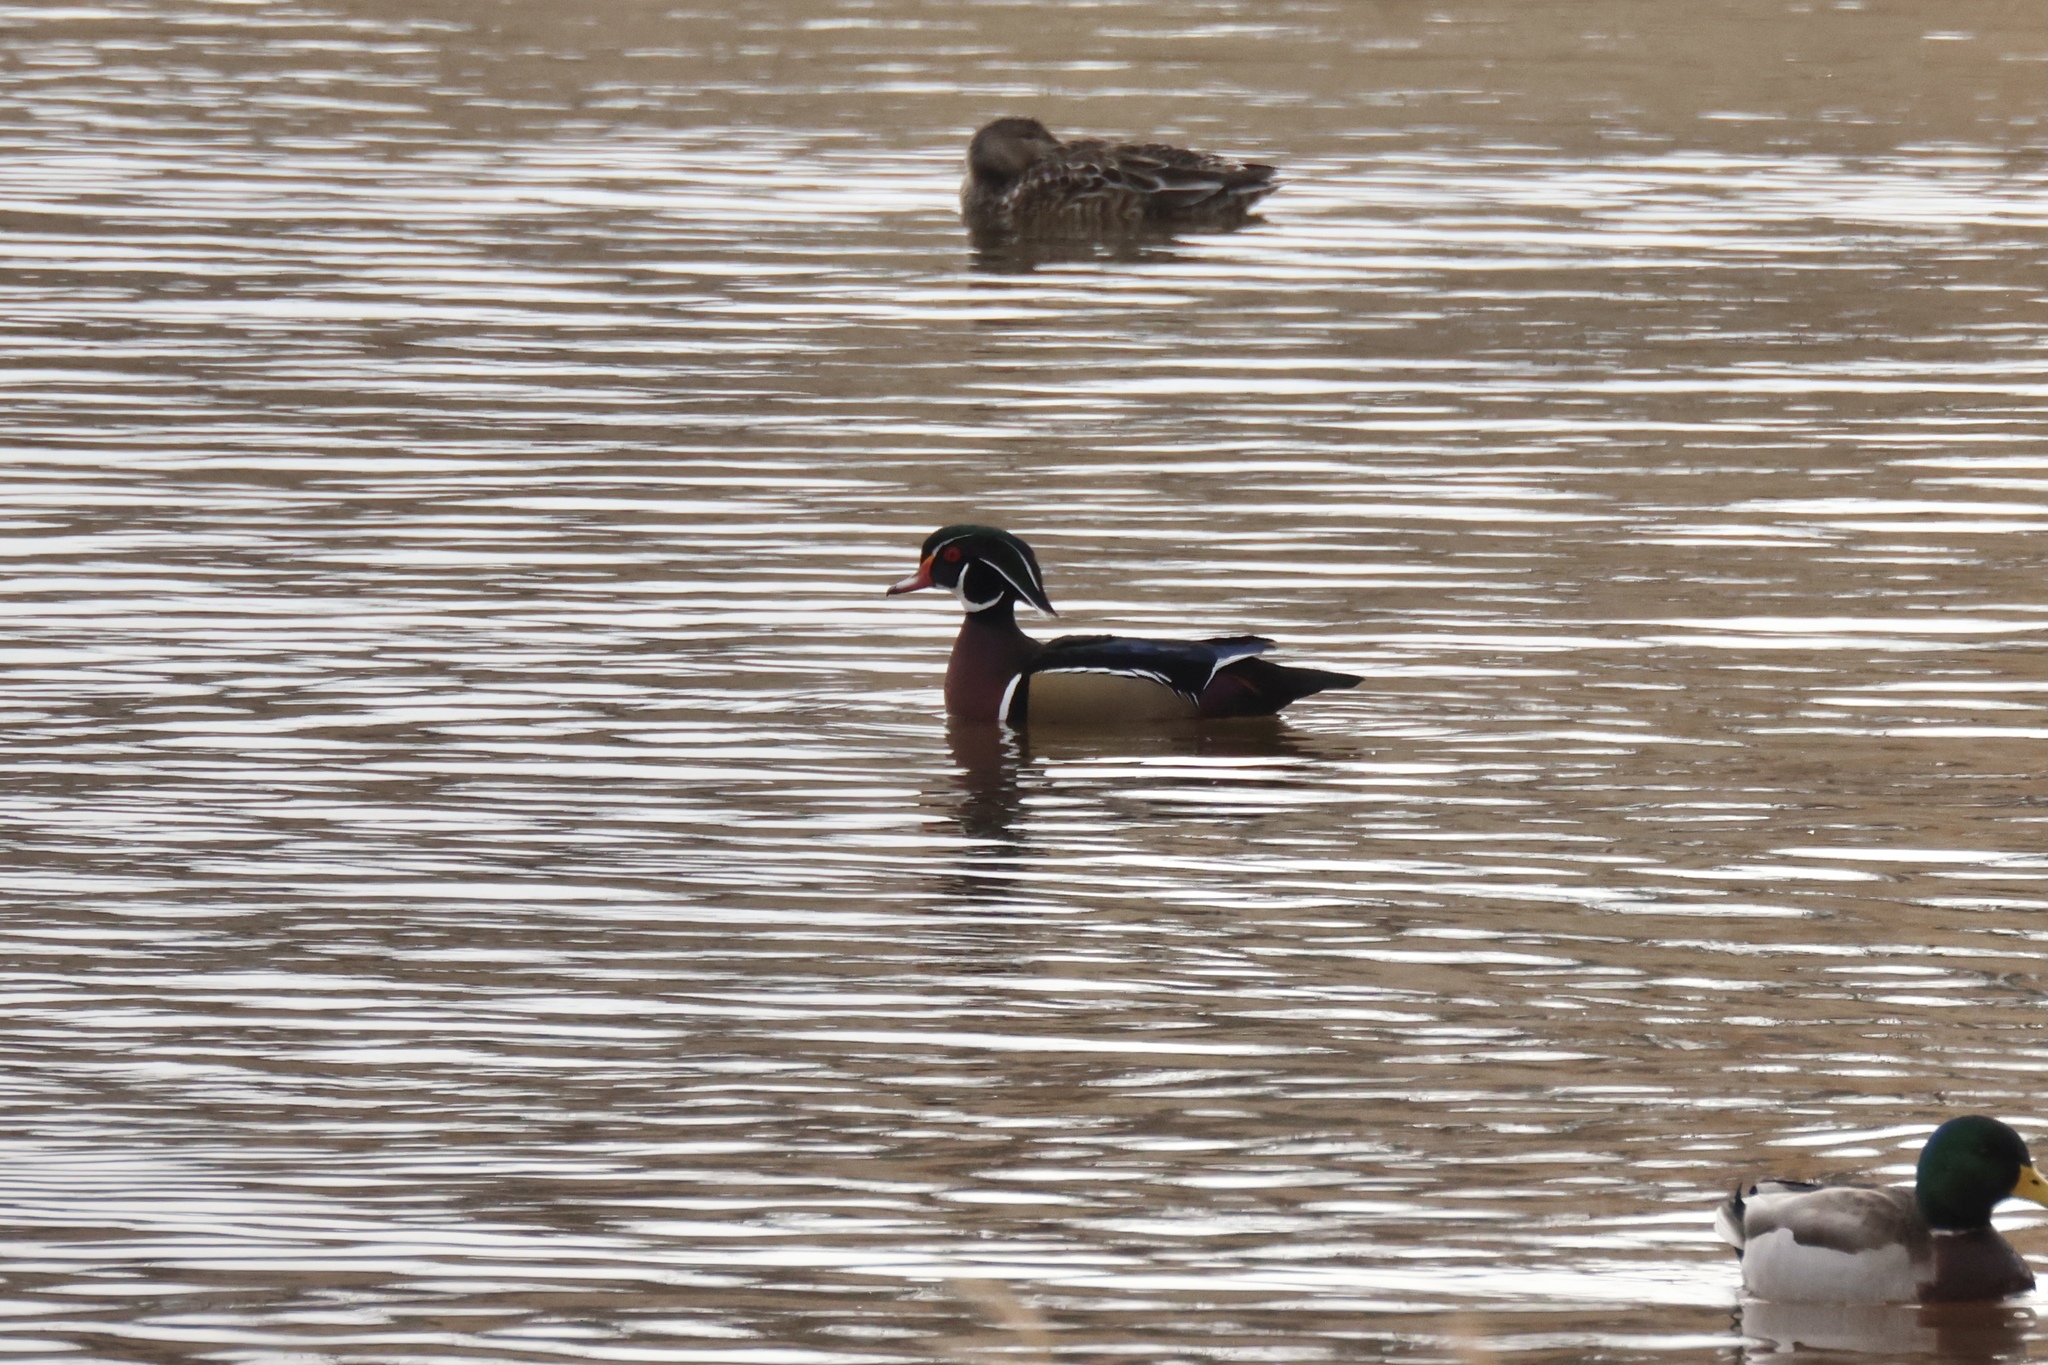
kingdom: Animalia
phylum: Chordata
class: Aves
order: Anseriformes
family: Anatidae
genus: Aix
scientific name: Aix sponsa
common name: Wood duck
